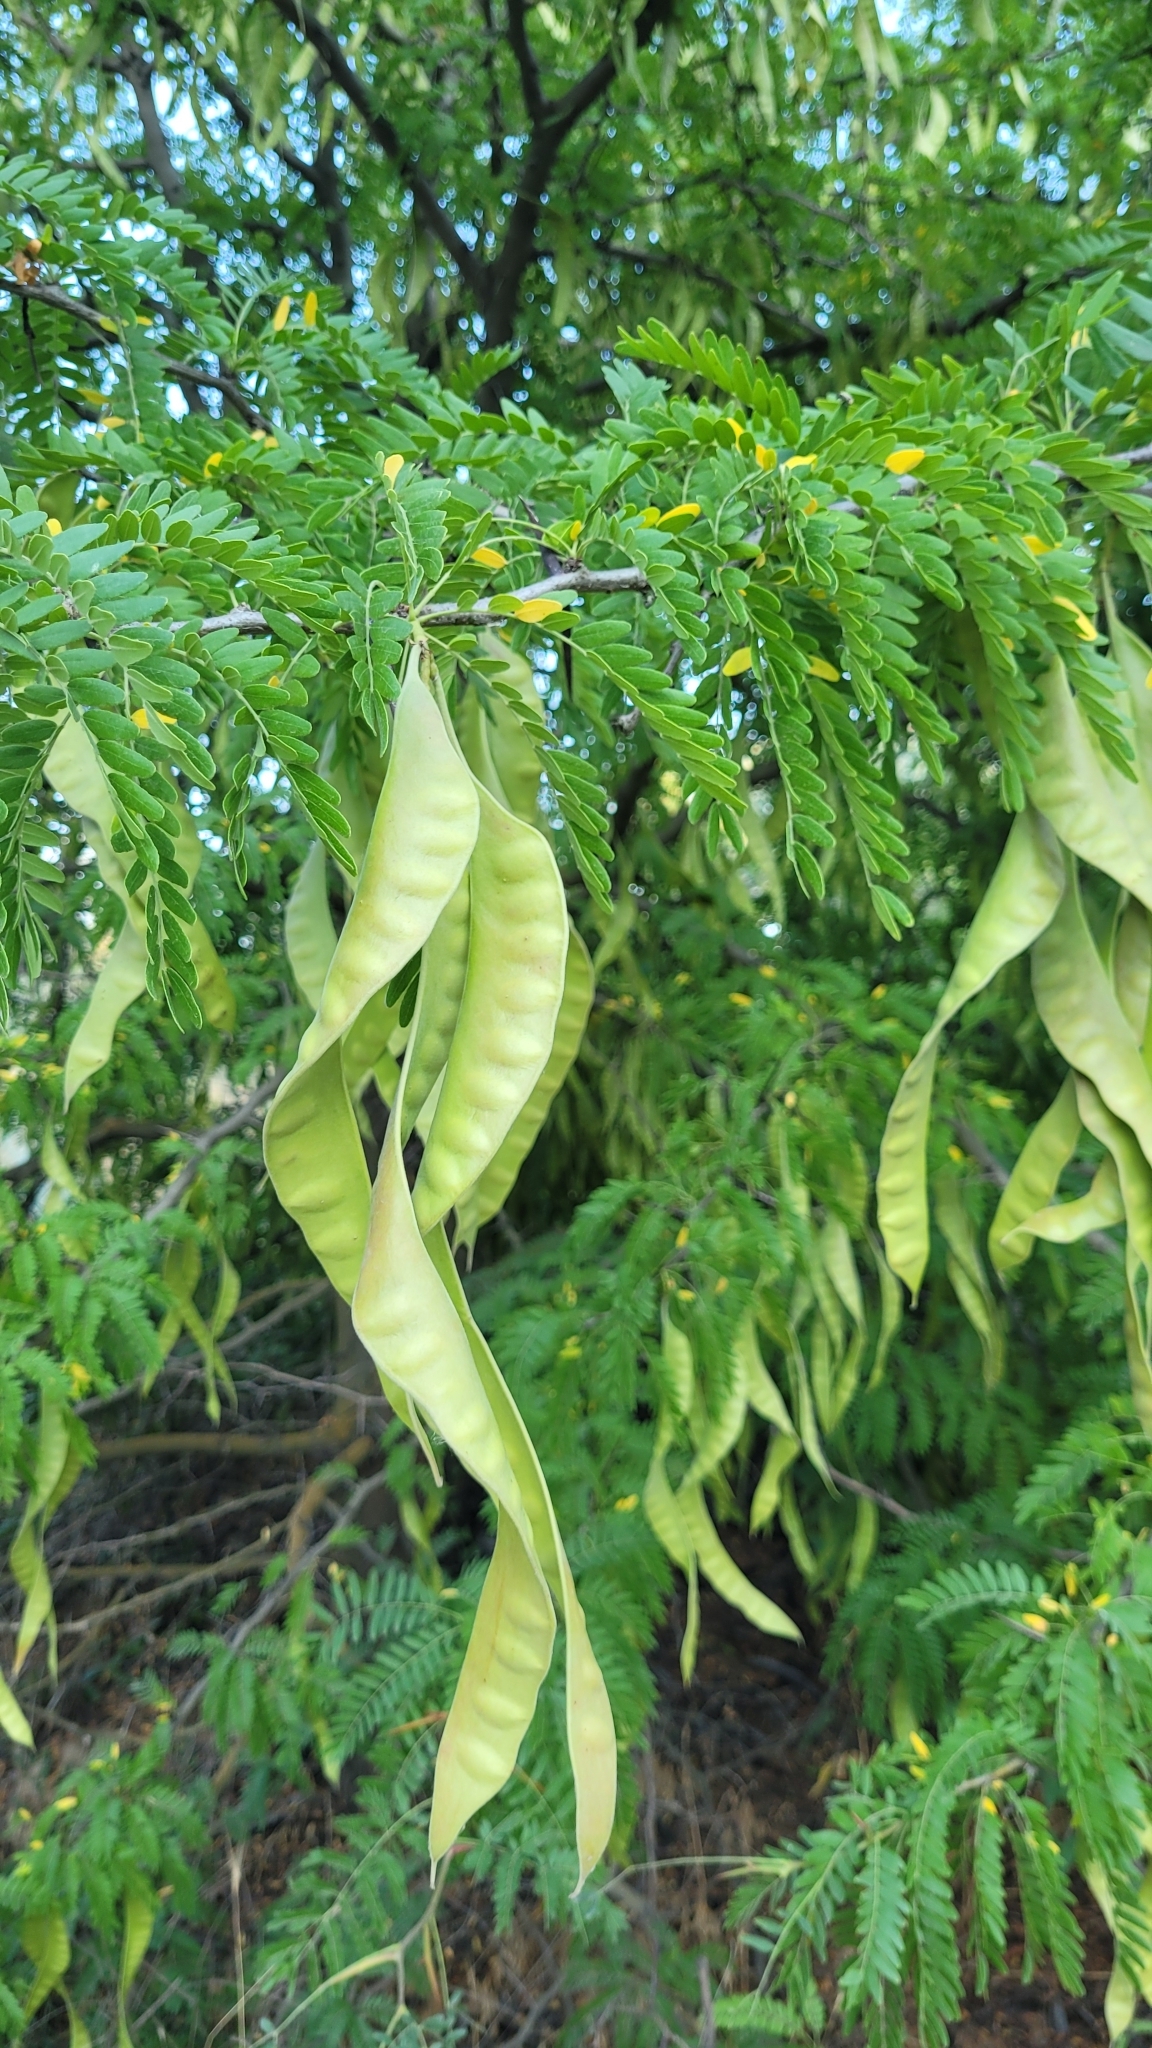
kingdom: Plantae
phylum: Tracheophyta
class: Magnoliopsida
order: Fabales
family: Fabaceae
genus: Gleditsia
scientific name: Gleditsia triacanthos
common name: Common honeylocust
